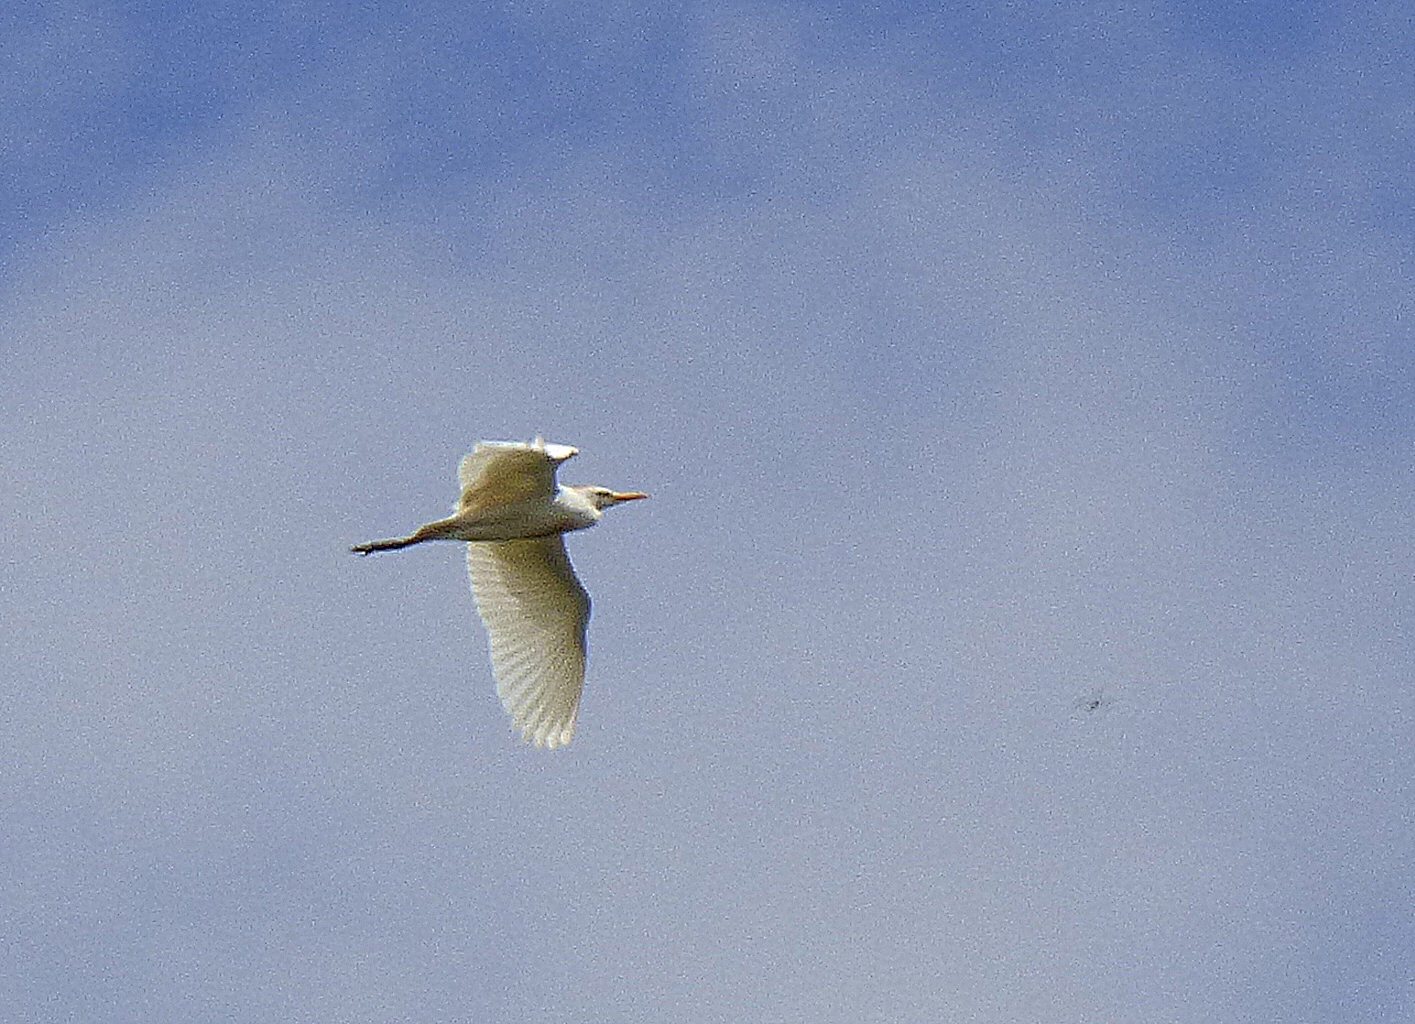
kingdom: Animalia
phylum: Chordata
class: Aves
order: Pelecaniformes
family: Ardeidae
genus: Bubulcus
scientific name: Bubulcus ibis
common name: Cattle egret
